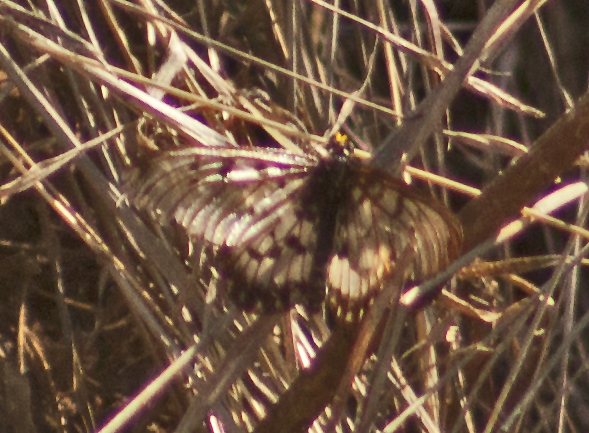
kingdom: Animalia
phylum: Arthropoda
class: Insecta
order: Lepidoptera
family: Nymphalidae
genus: Acraea
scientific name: Acraea andromacha
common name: Glasswing
